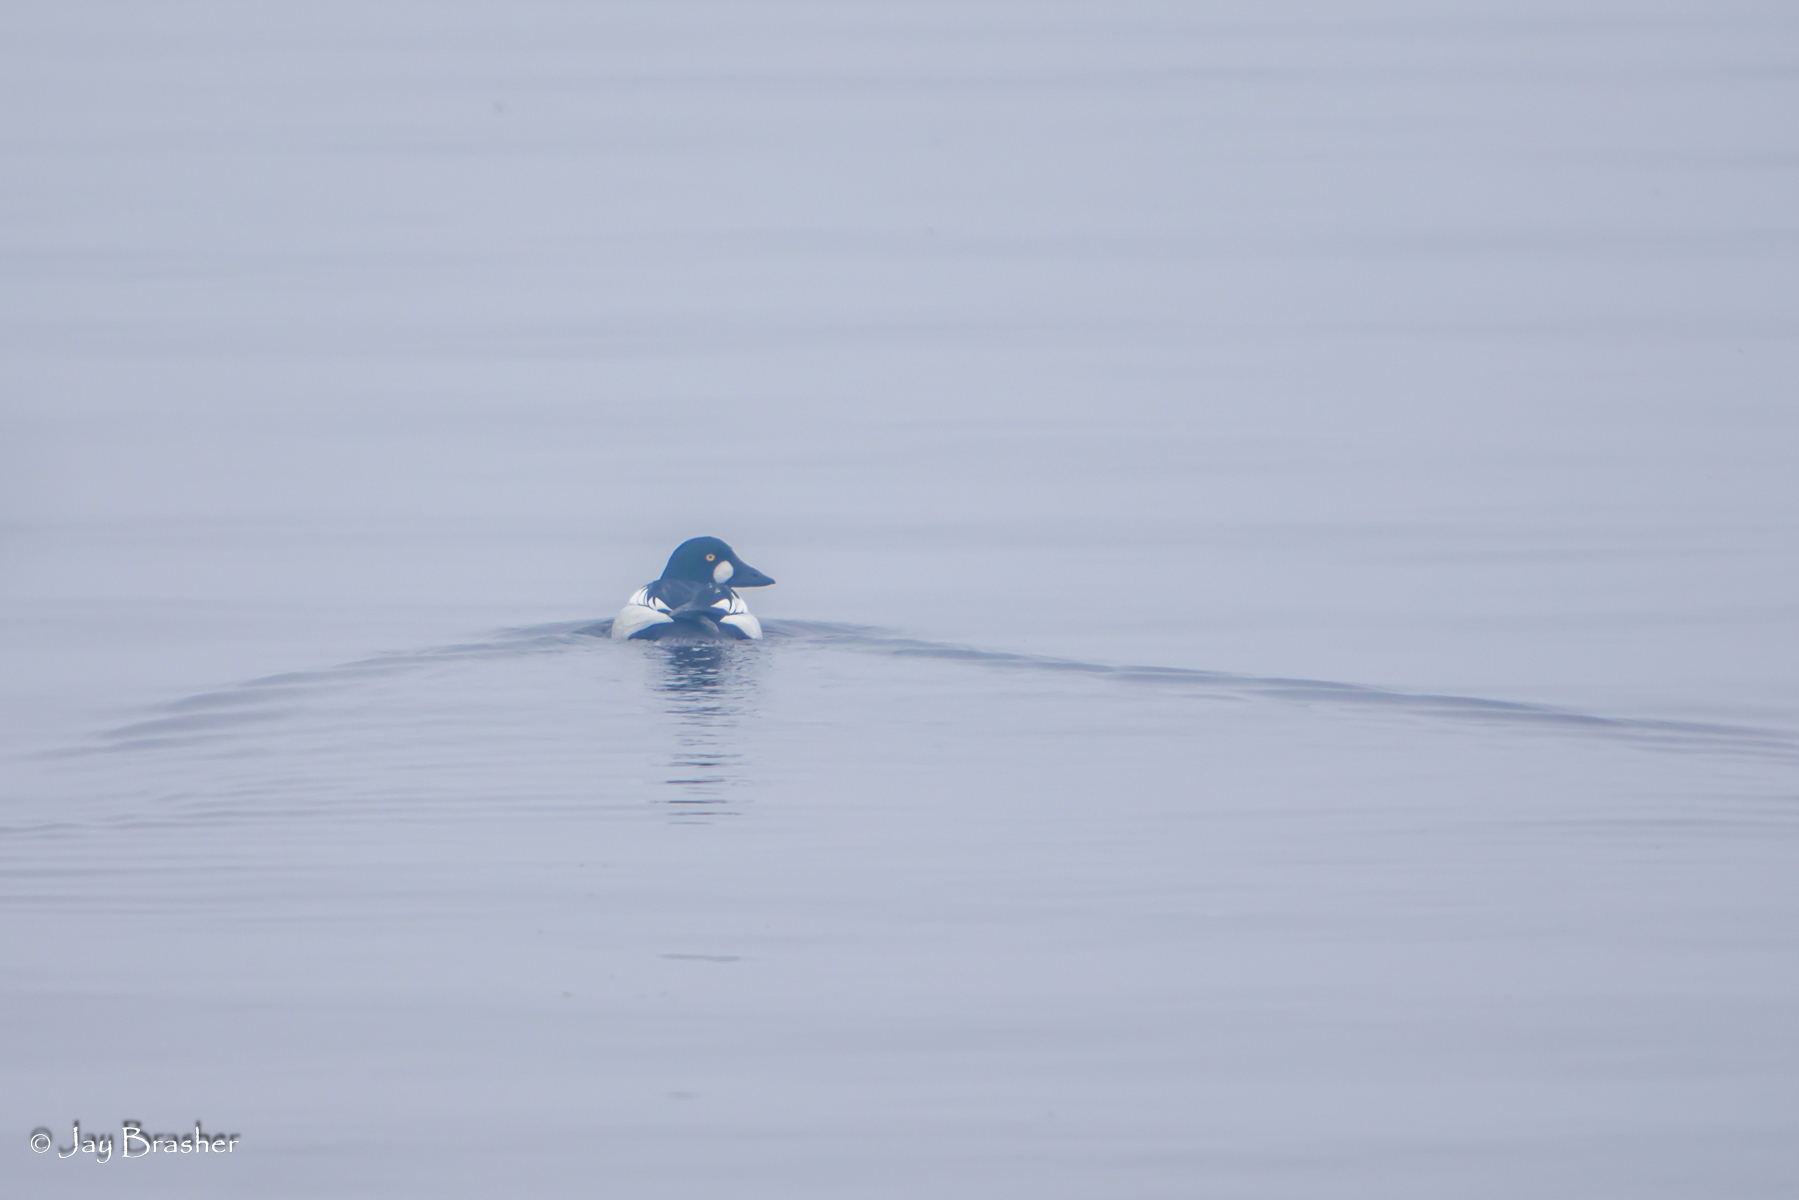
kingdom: Animalia
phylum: Chordata
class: Aves
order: Anseriformes
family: Anatidae
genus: Bucephala
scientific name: Bucephala clangula
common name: Common goldeneye
